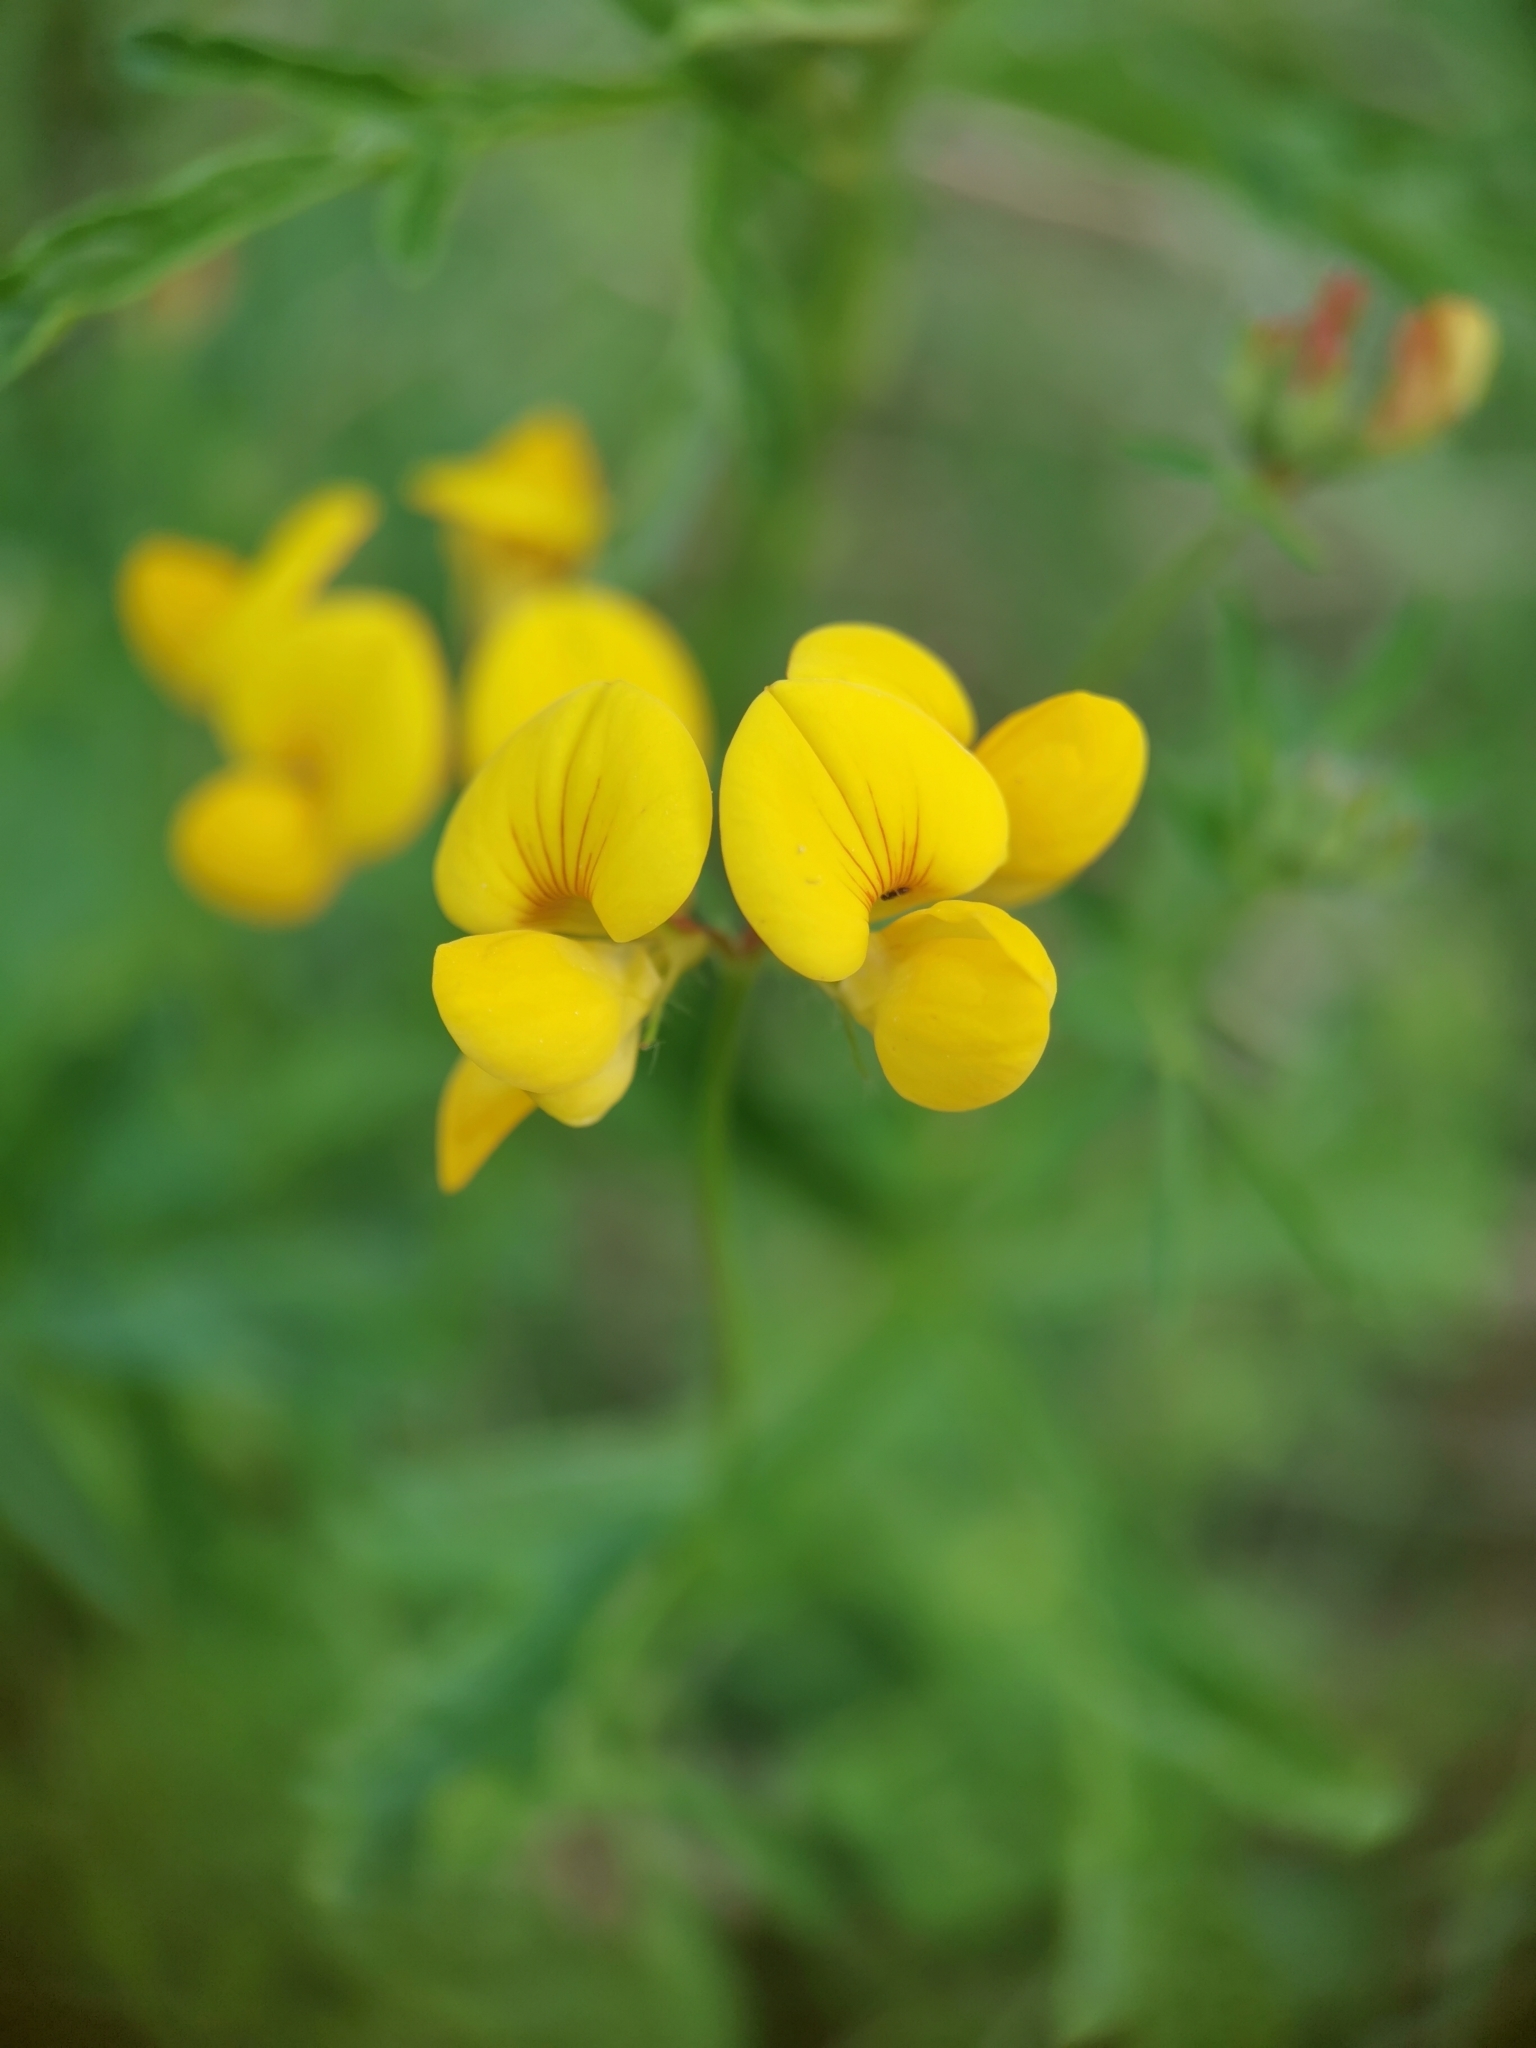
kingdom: Plantae
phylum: Tracheophyta
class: Magnoliopsida
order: Fabales
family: Fabaceae
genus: Lotus
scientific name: Lotus corniculatus
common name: Common bird's-foot-trefoil
